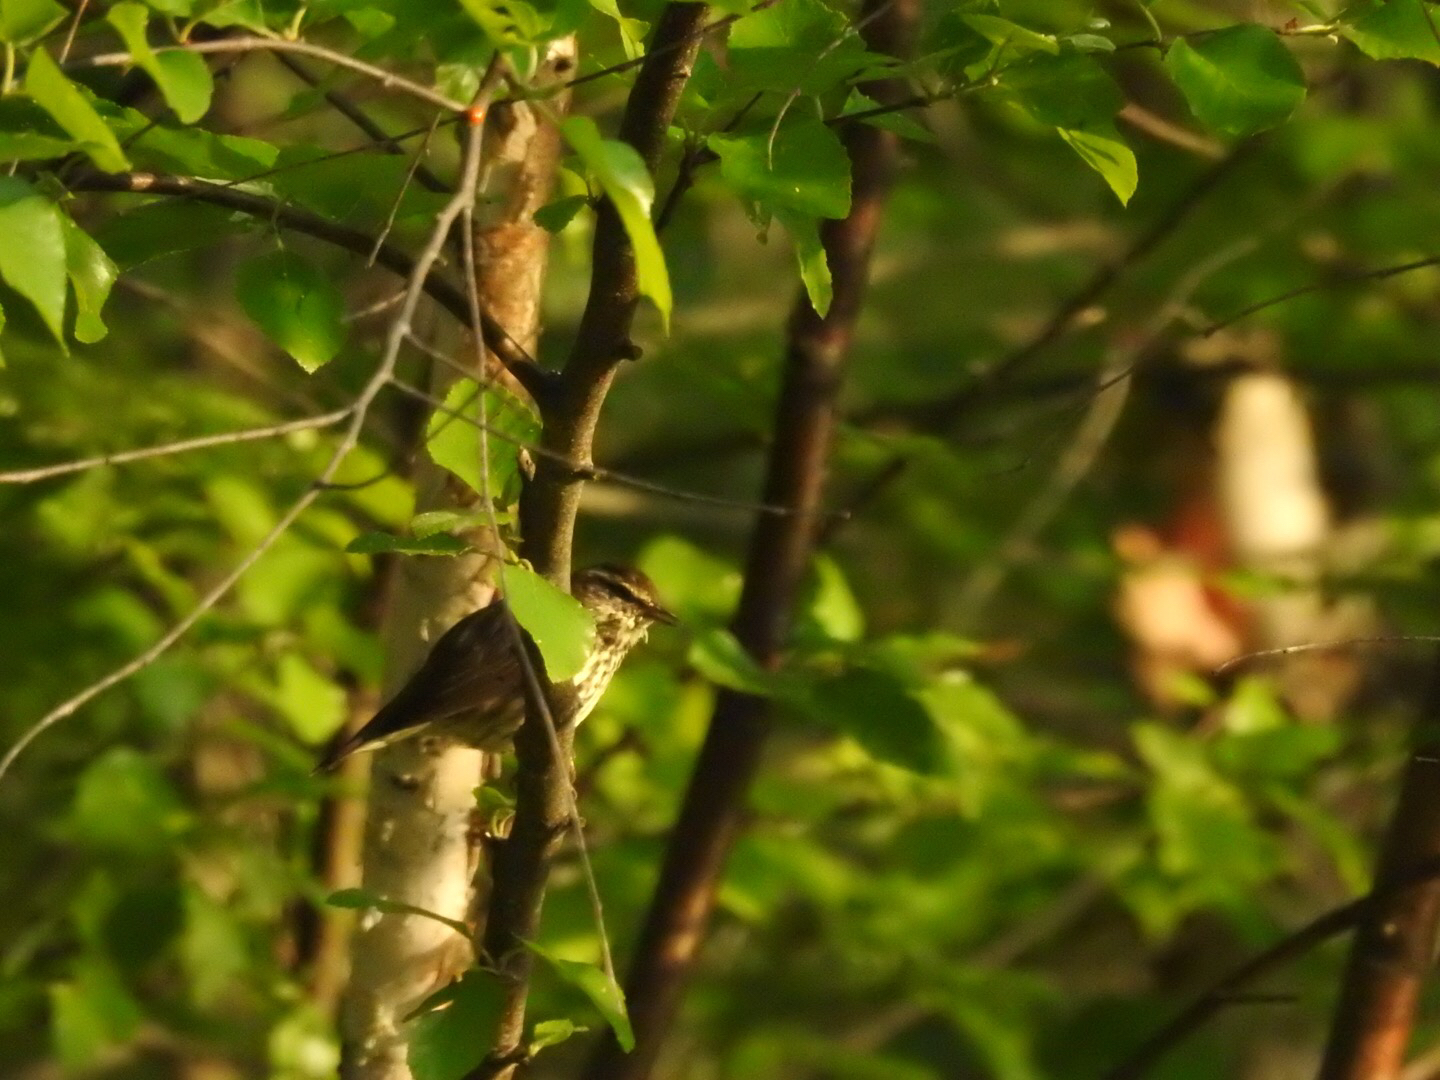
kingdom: Animalia
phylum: Chordata
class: Aves
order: Passeriformes
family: Parulidae
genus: Parkesia
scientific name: Parkesia noveboracensis
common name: Northern waterthrush
